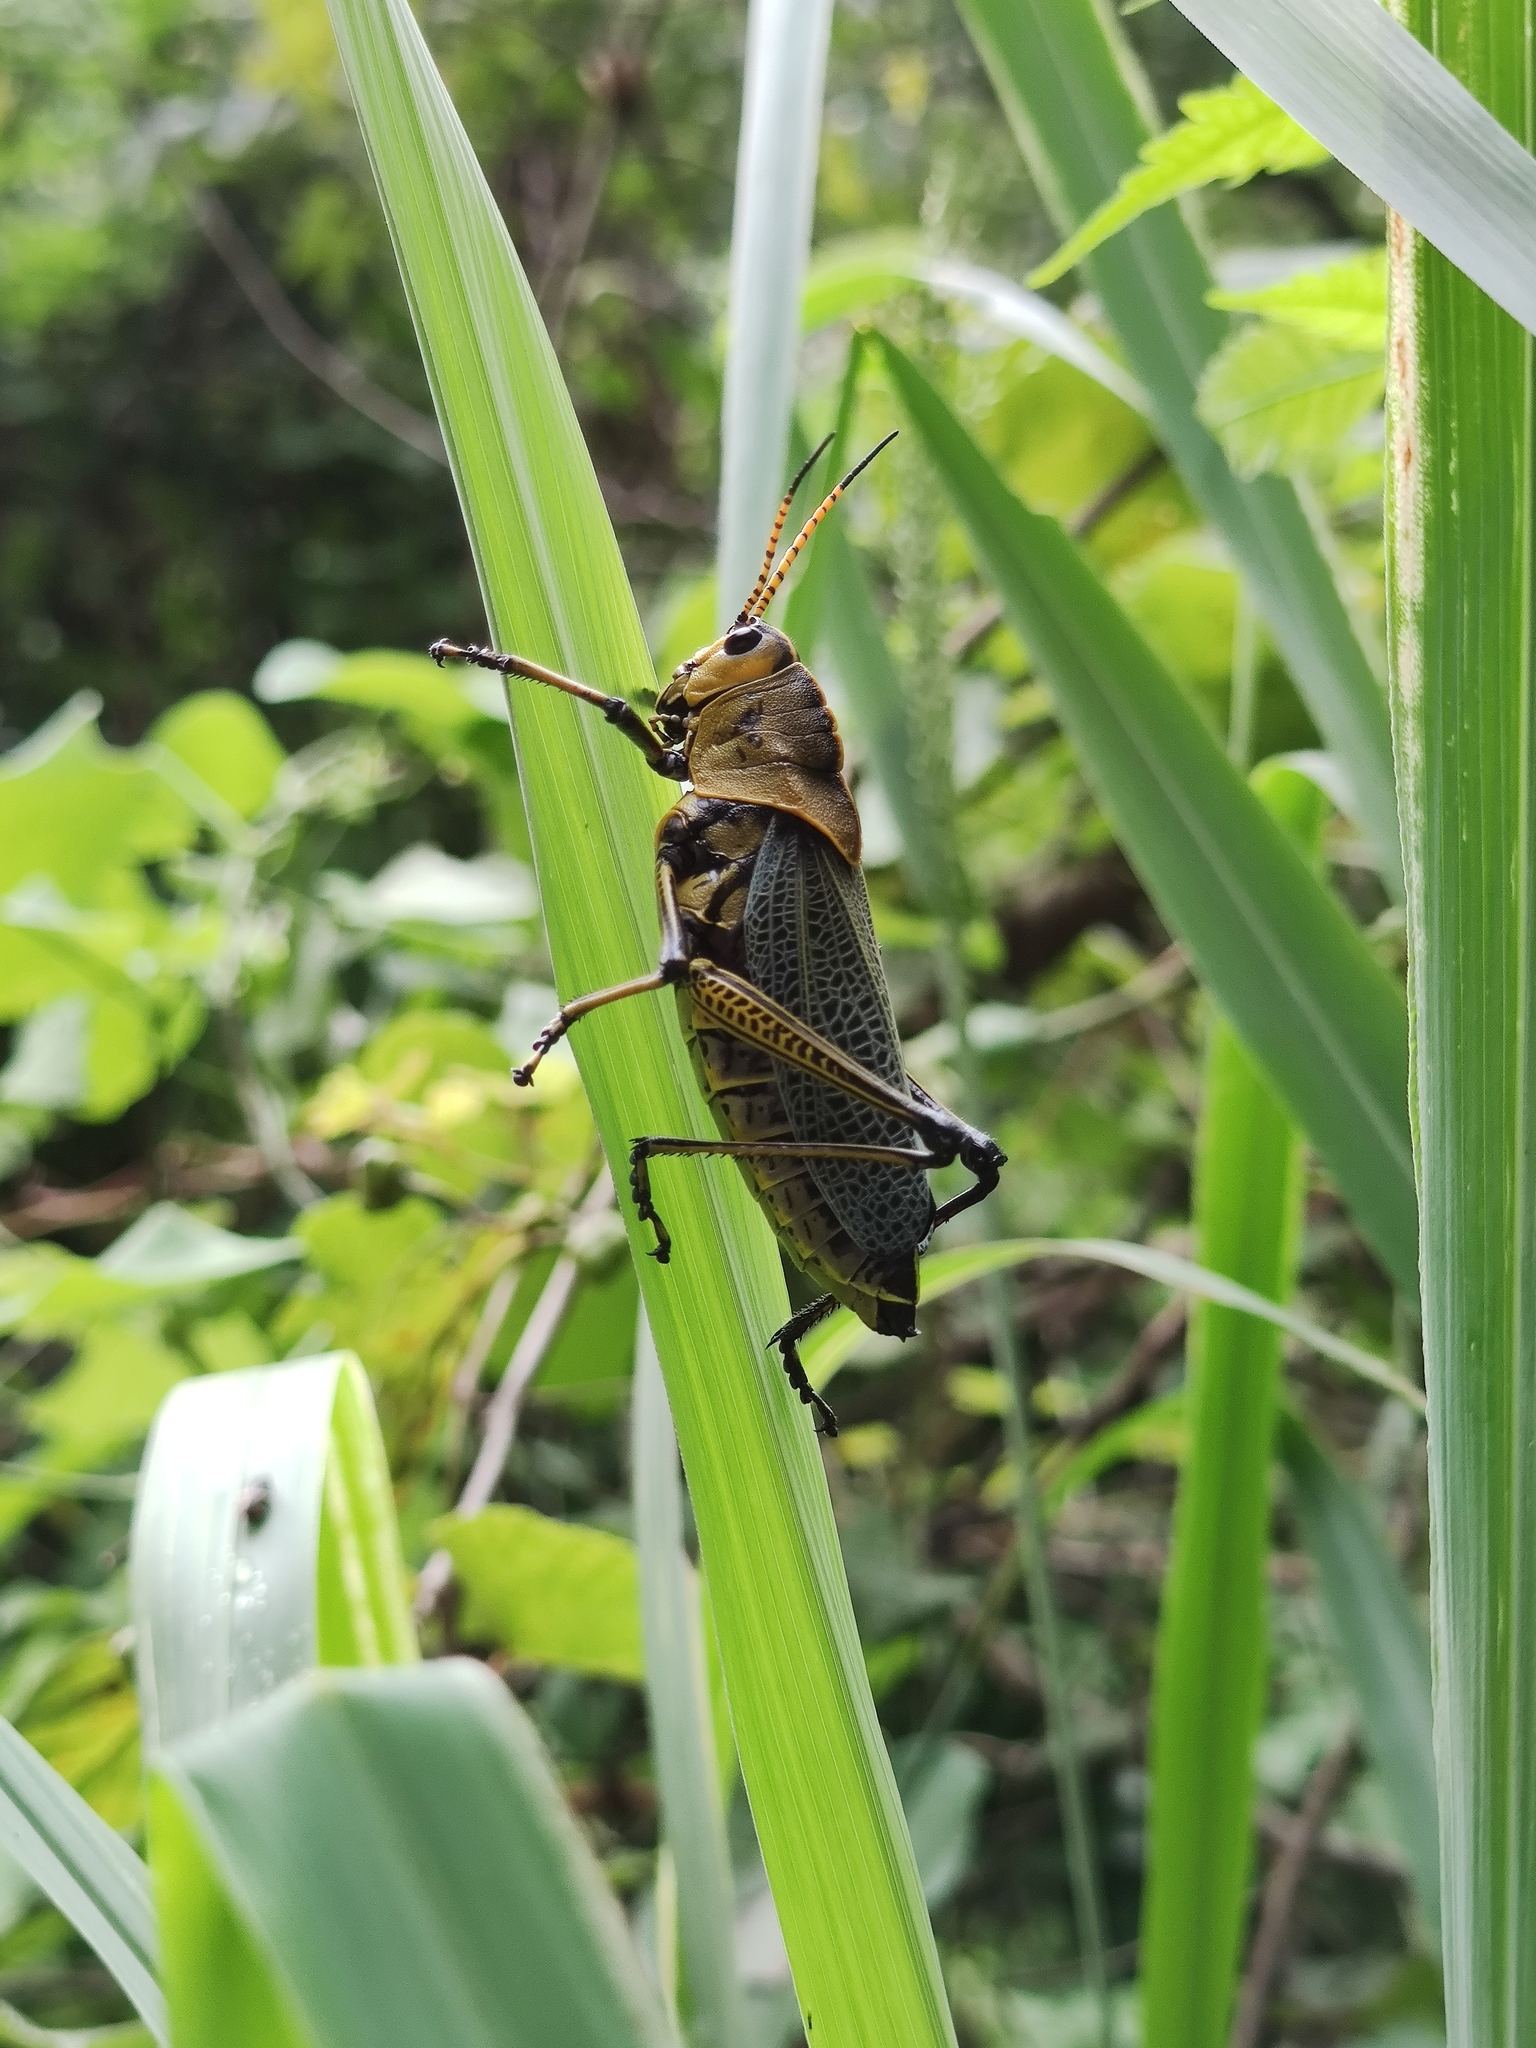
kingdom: Animalia
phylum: Arthropoda
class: Insecta
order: Orthoptera
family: Romaleidae
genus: Romalea
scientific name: Romalea
